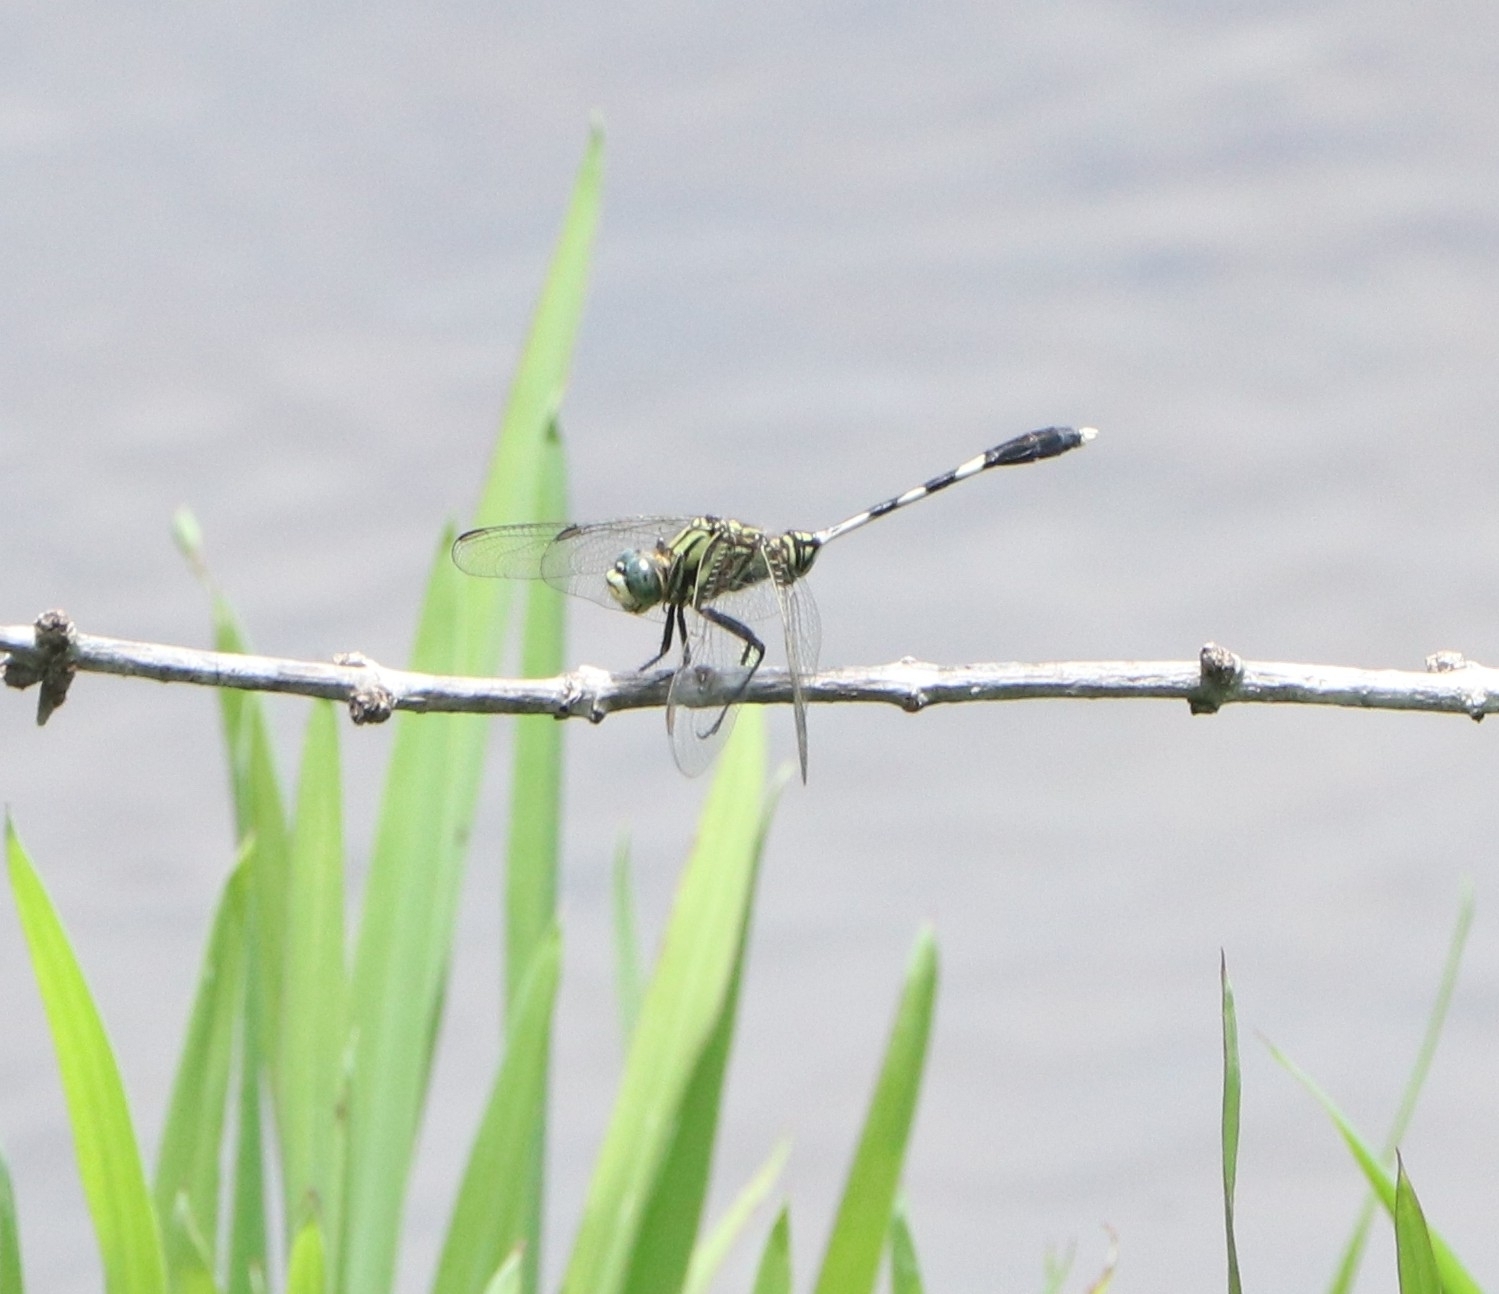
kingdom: Animalia
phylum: Arthropoda
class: Insecta
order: Odonata
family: Libellulidae
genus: Orthetrum
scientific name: Orthetrum sabina
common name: Slender skimmer
